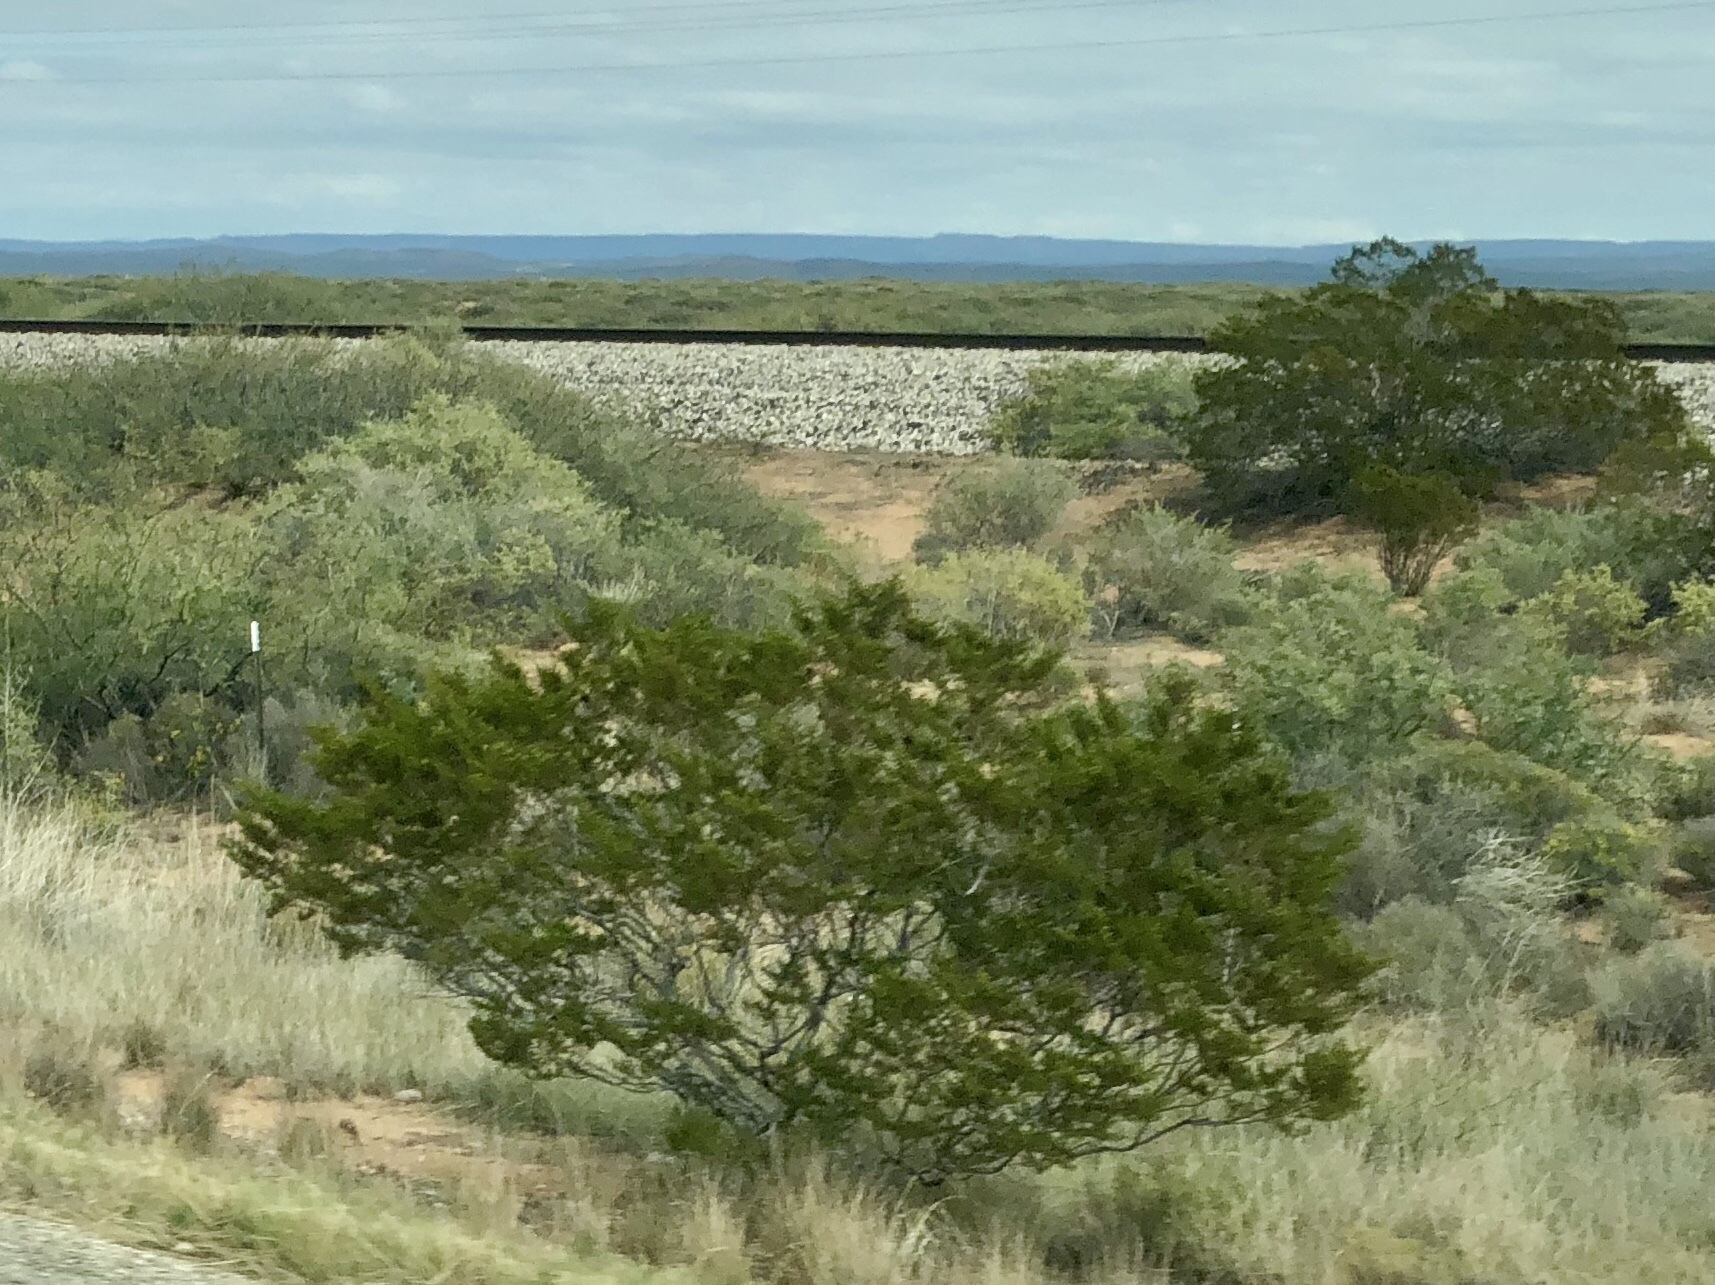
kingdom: Plantae
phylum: Tracheophyta
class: Magnoliopsida
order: Zygophyllales
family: Zygophyllaceae
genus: Larrea
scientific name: Larrea tridentata
